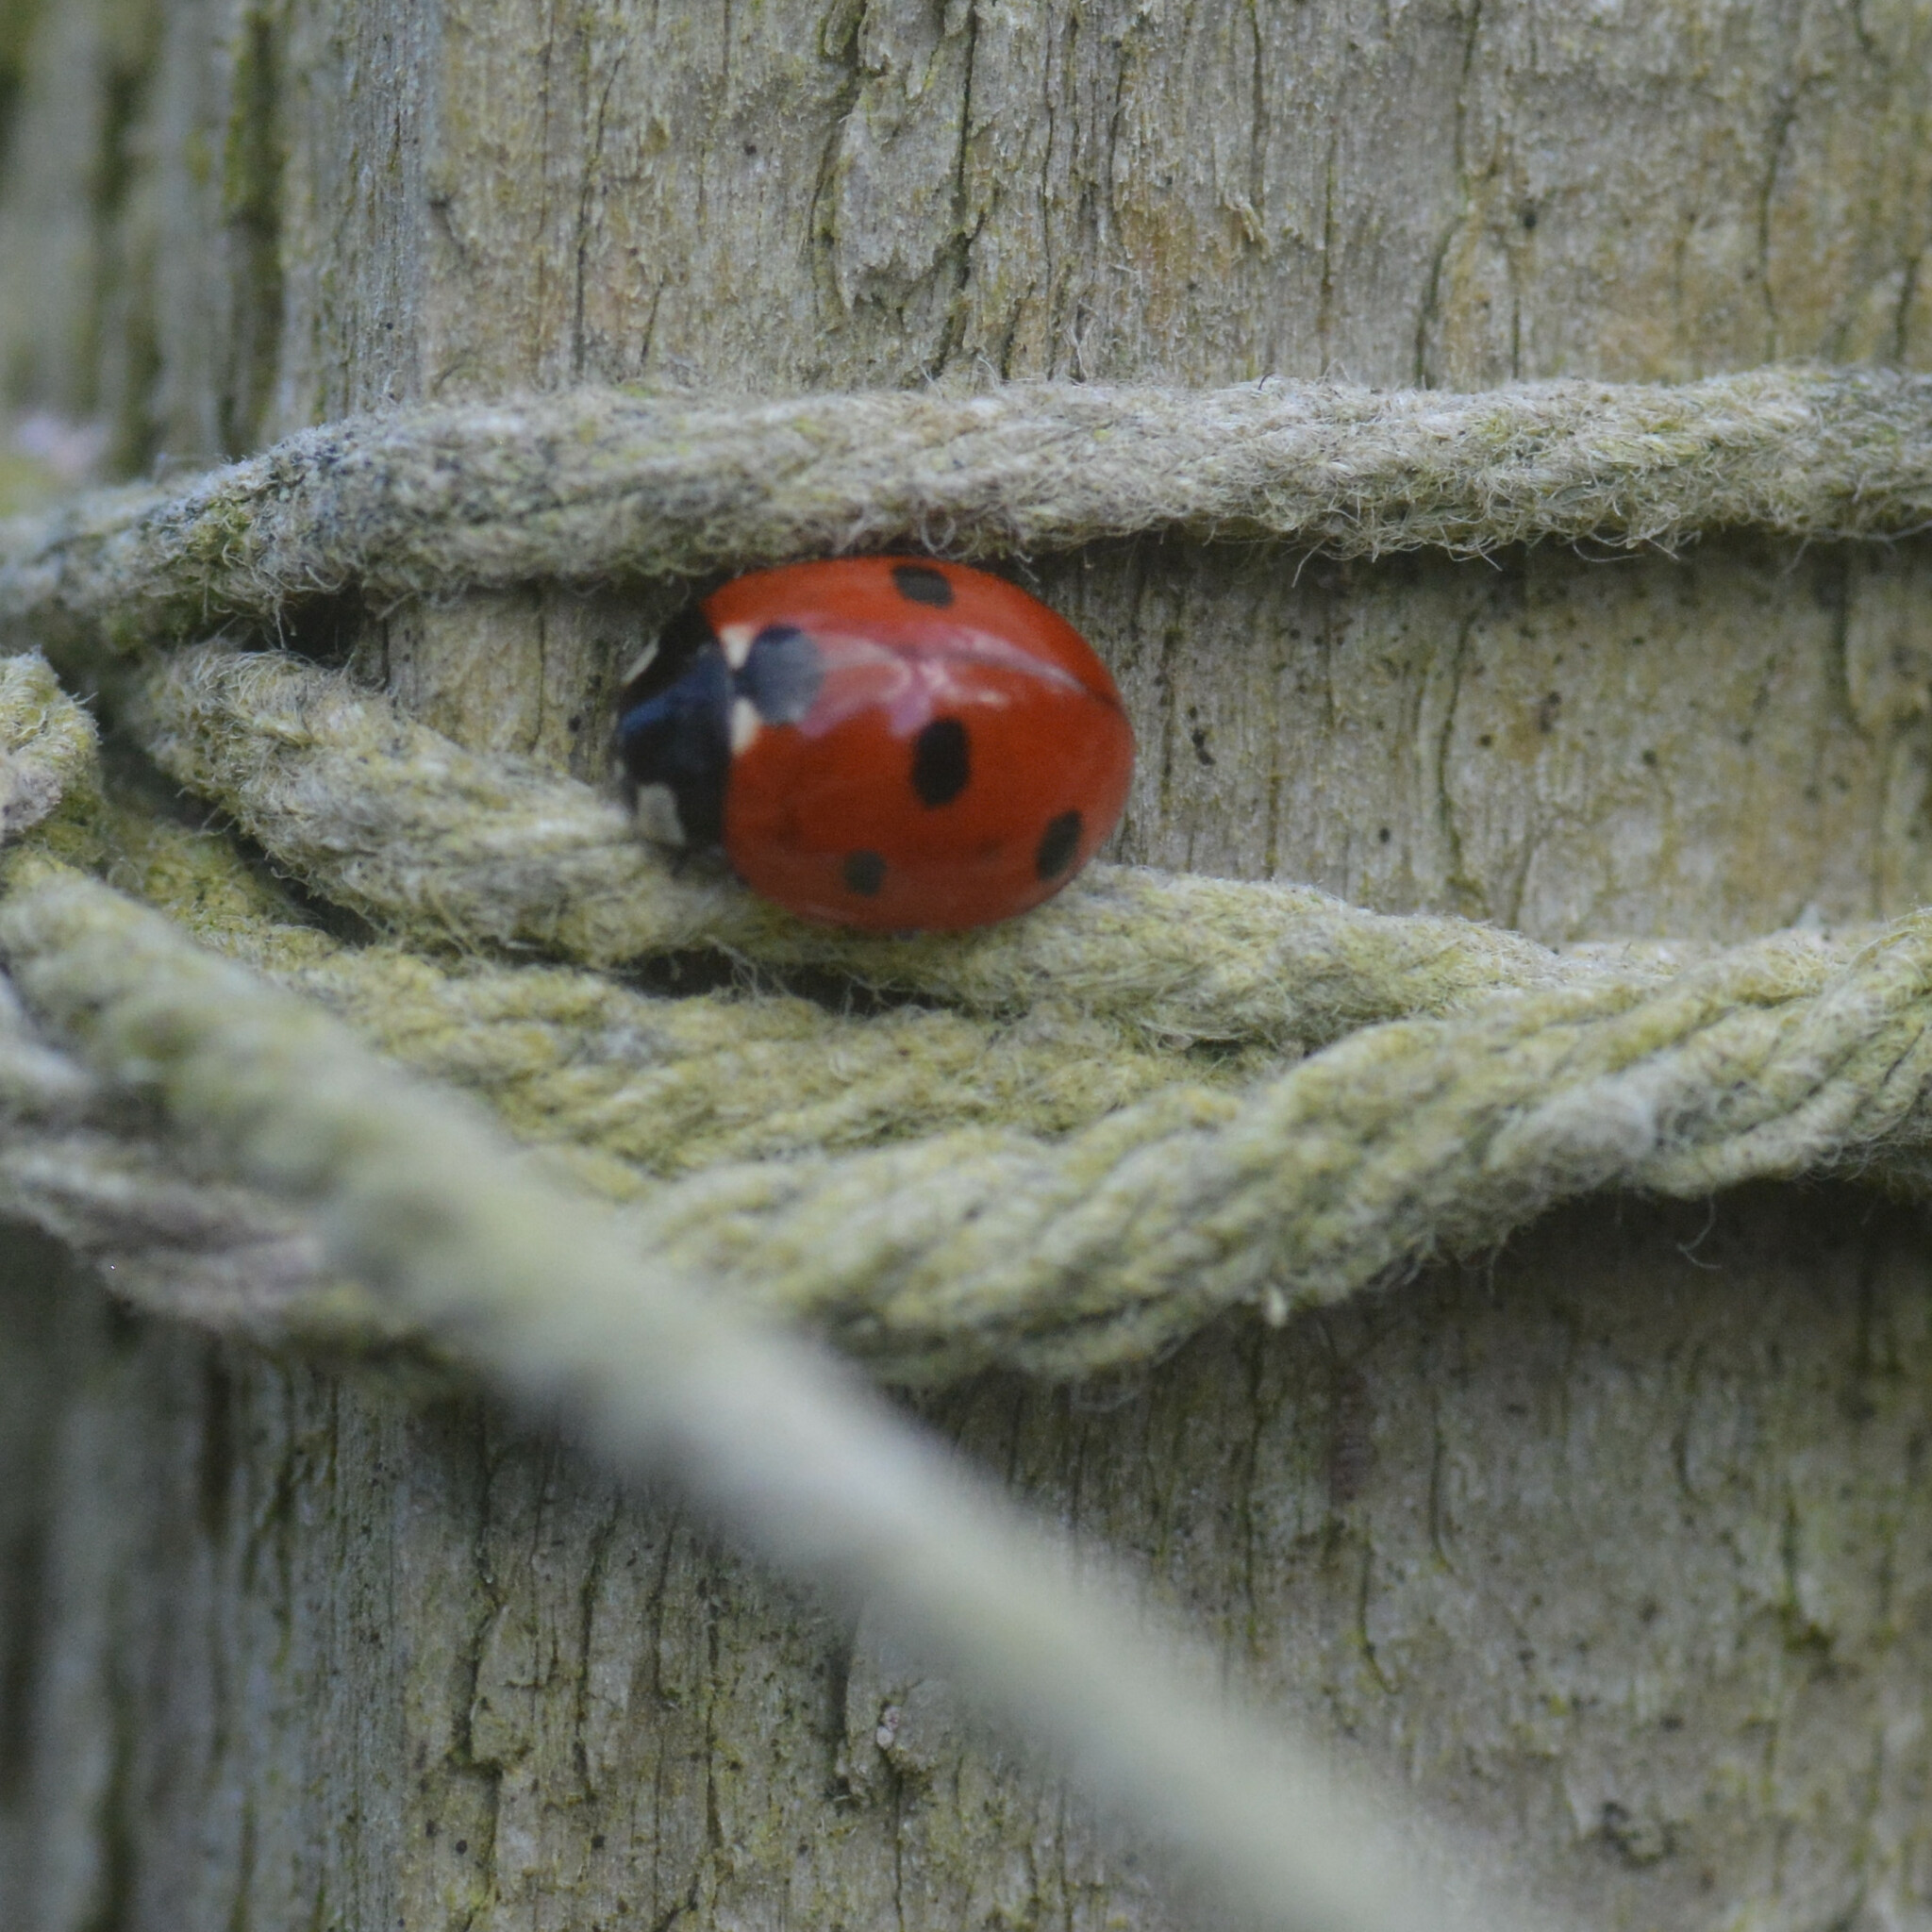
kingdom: Animalia
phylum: Arthropoda
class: Insecta
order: Coleoptera
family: Coccinellidae
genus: Coccinella
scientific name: Coccinella septempunctata
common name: Sevenspotted lady beetle
